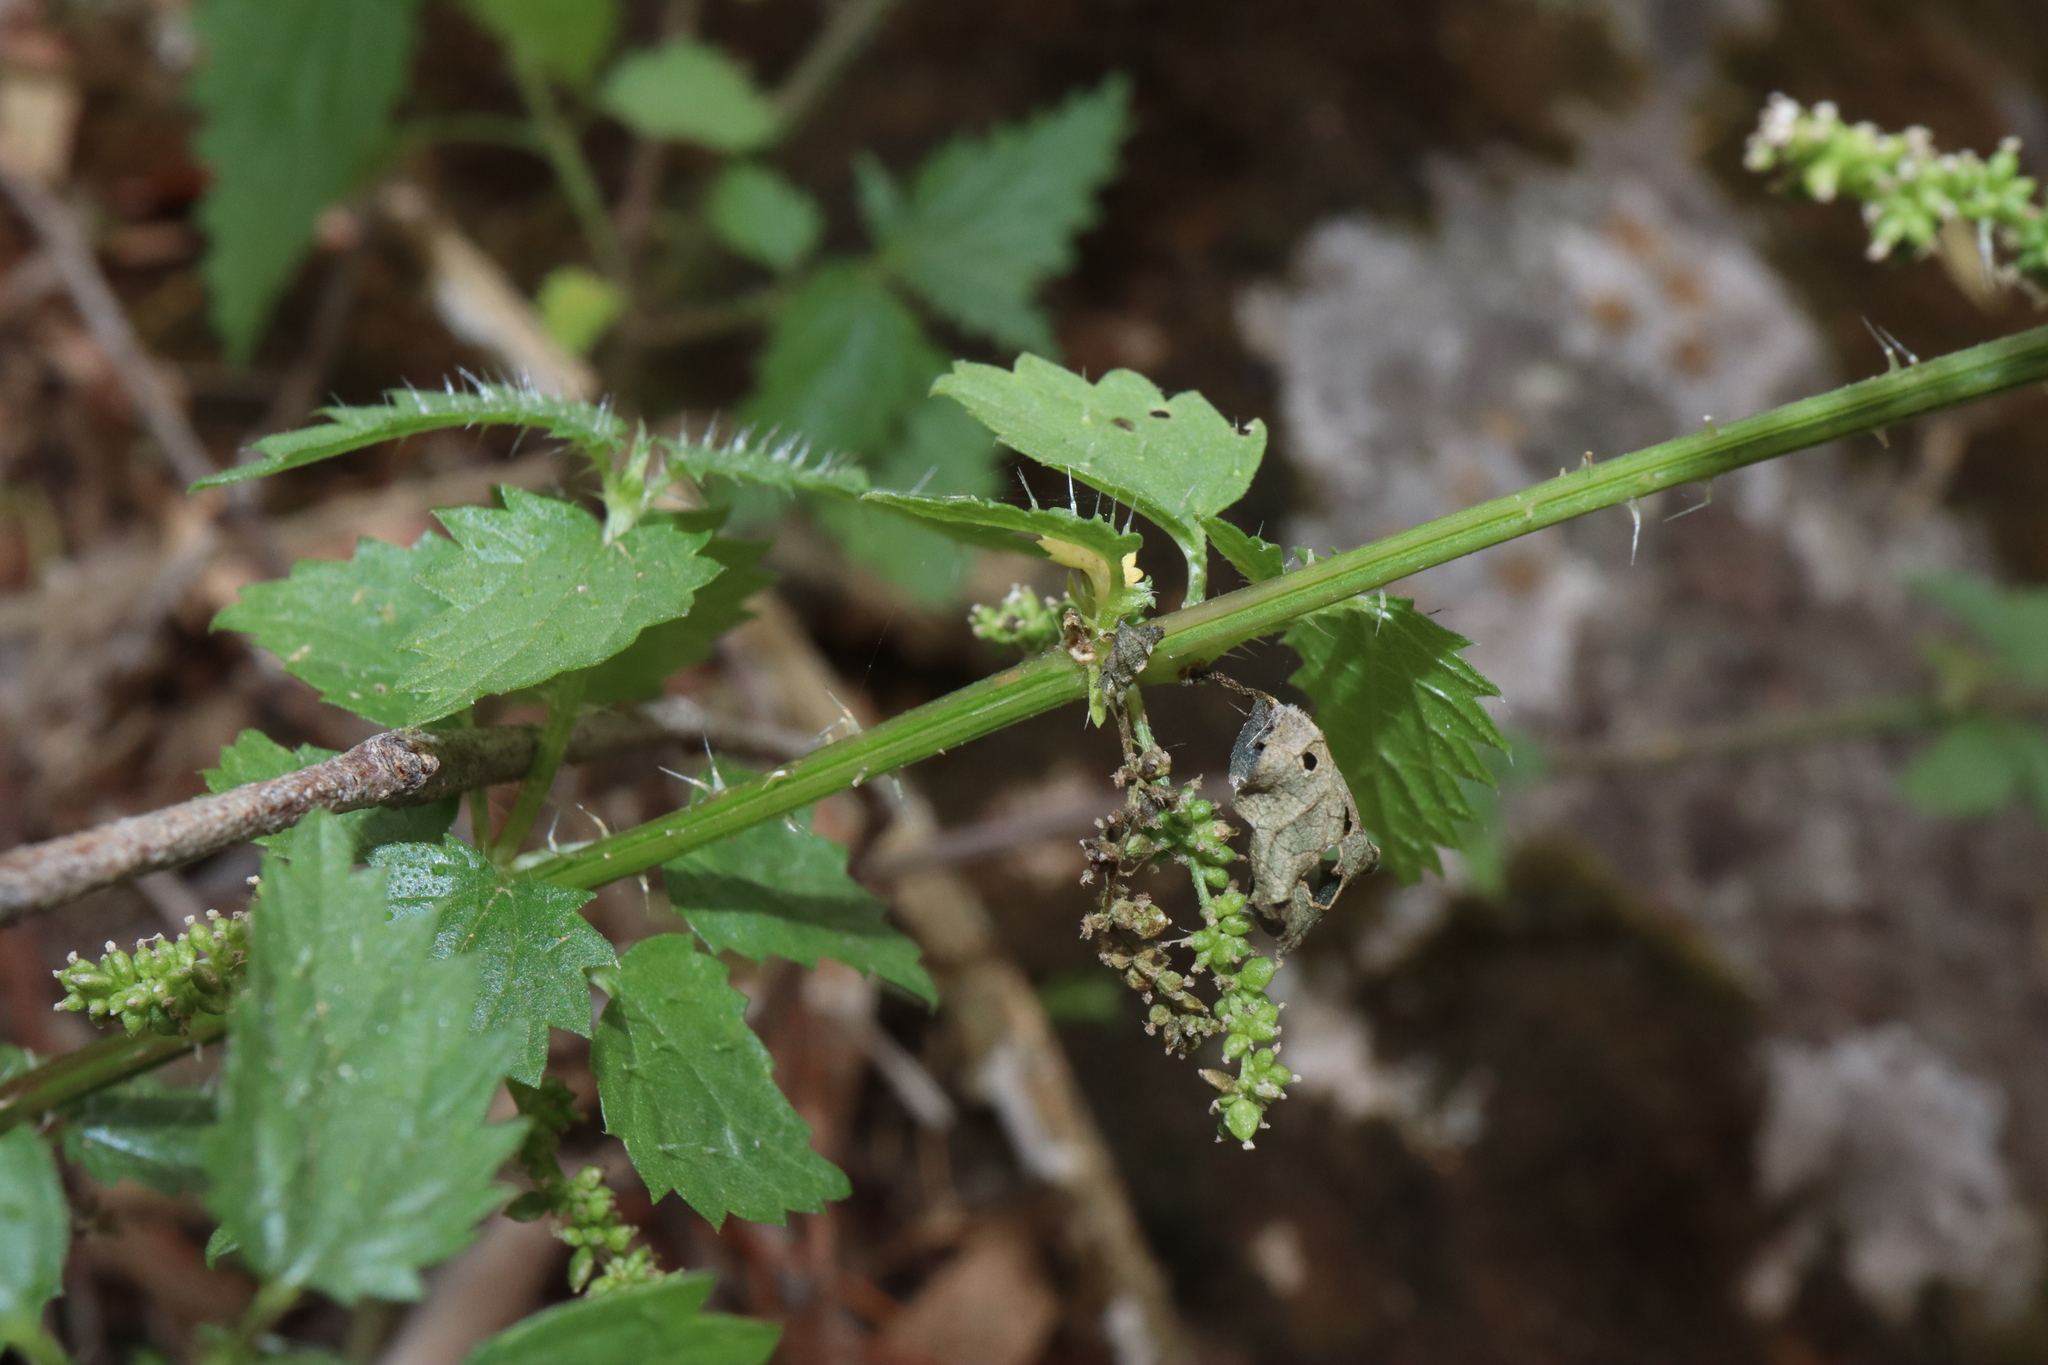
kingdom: Plantae
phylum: Tracheophyta
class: Magnoliopsida
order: Rosales
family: Urticaceae
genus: Urtica
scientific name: Urtica incisa
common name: Scrub nettle
